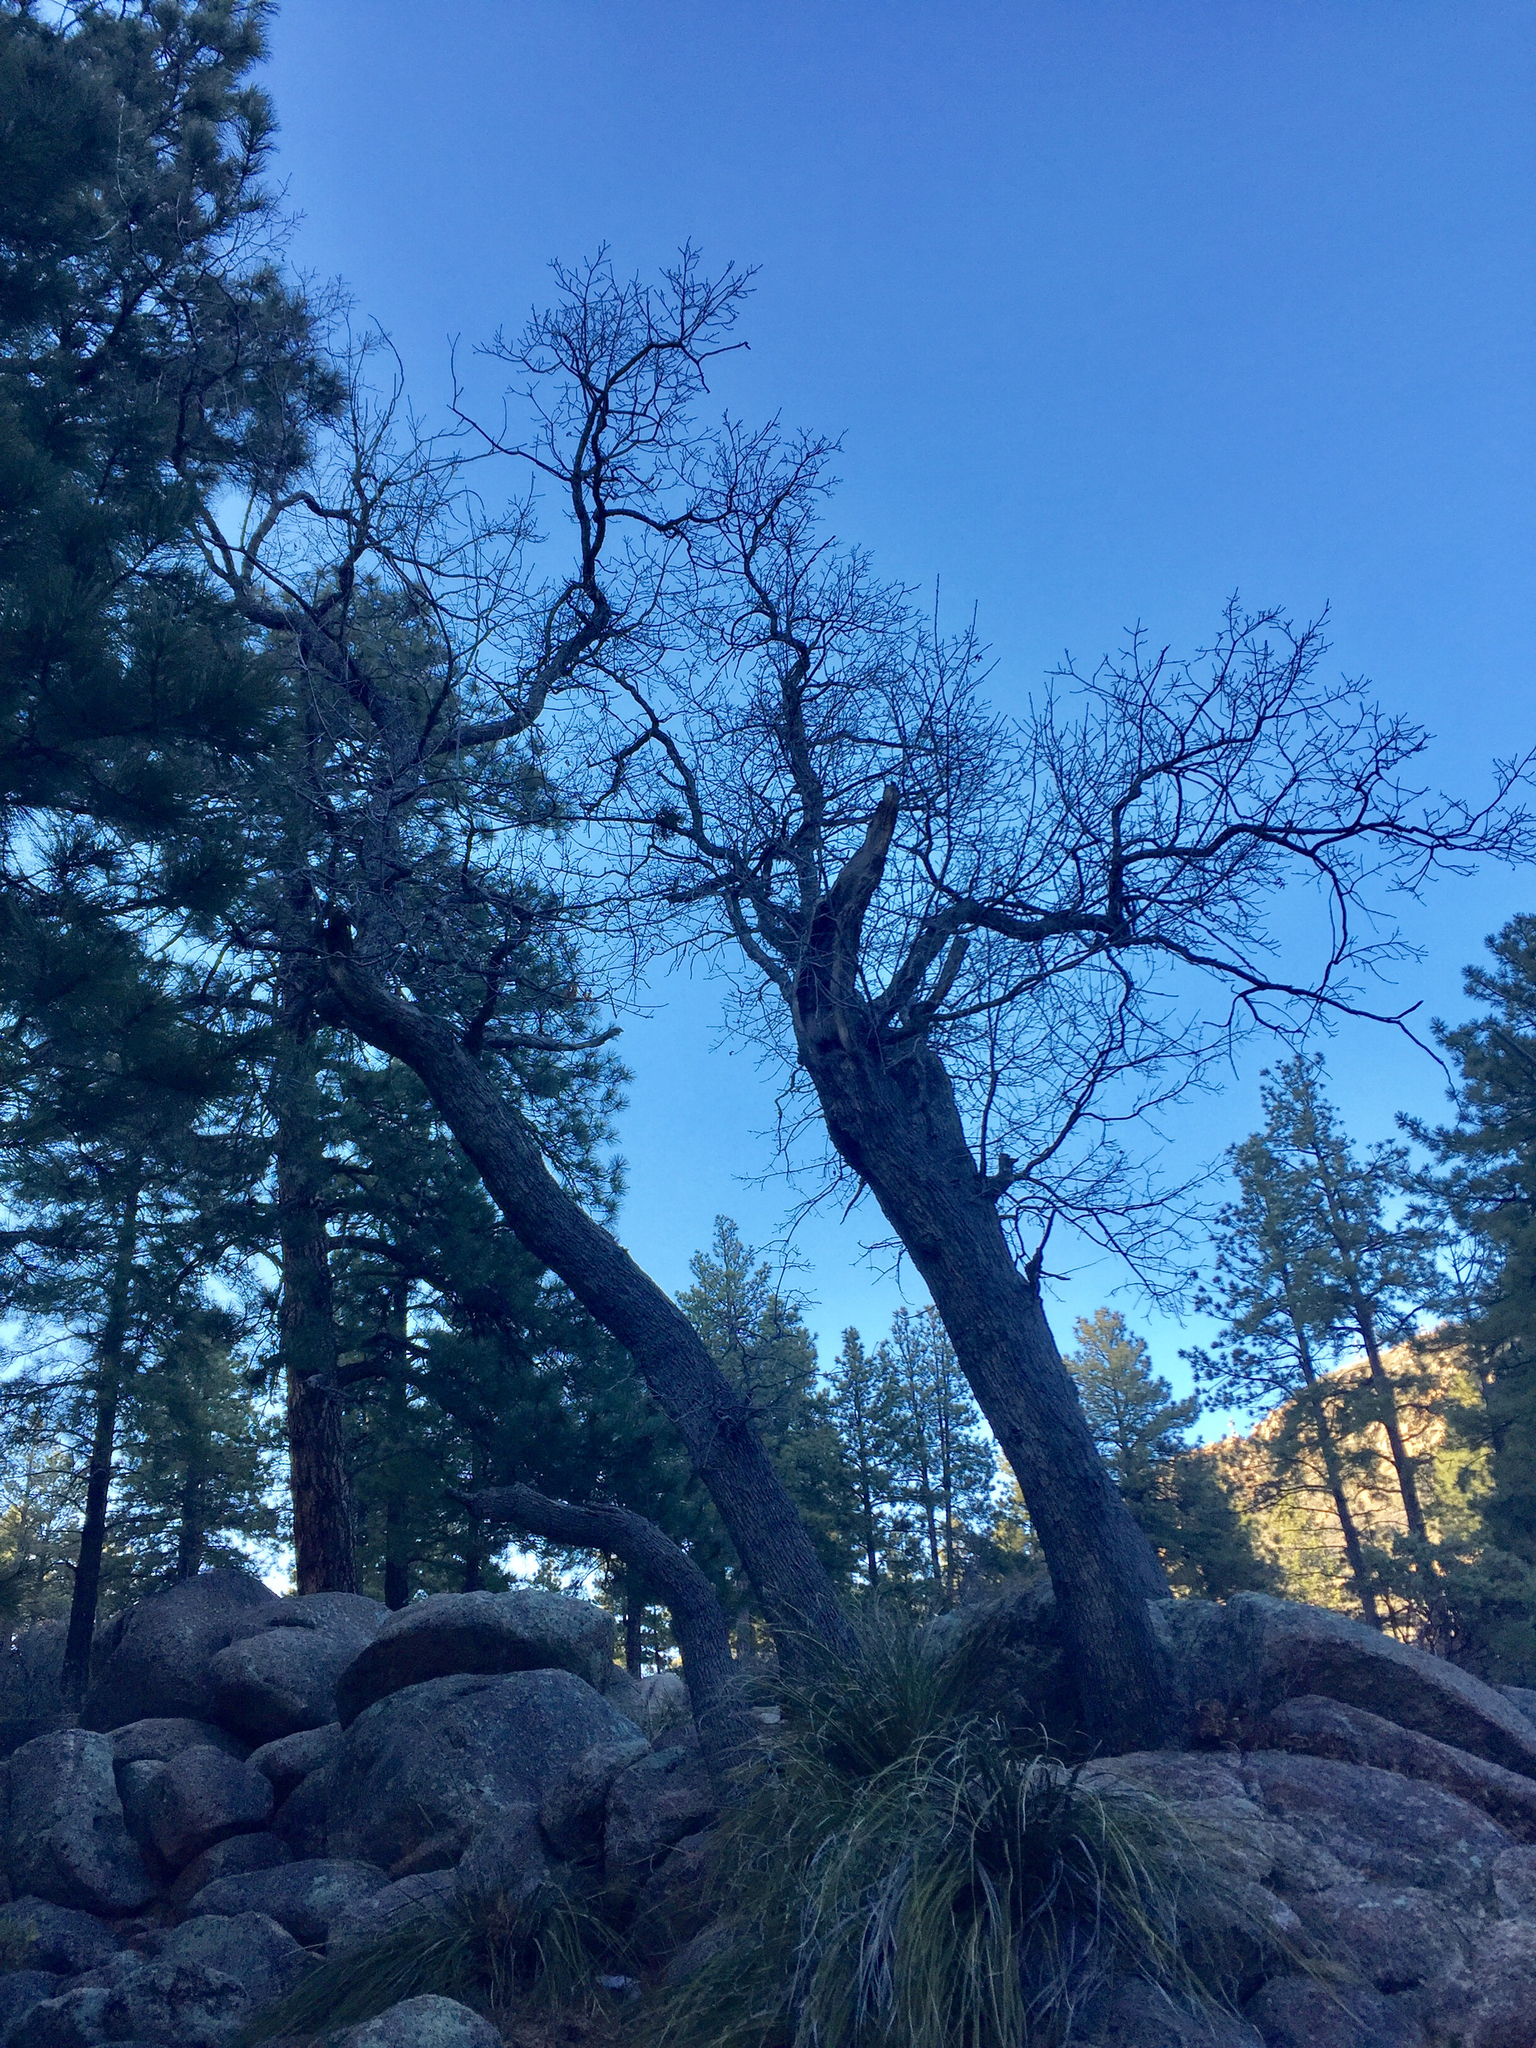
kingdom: Plantae
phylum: Tracheophyta
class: Magnoliopsida
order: Fagales
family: Fagaceae
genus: Quercus
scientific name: Quercus gambelii
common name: Gambel oak
